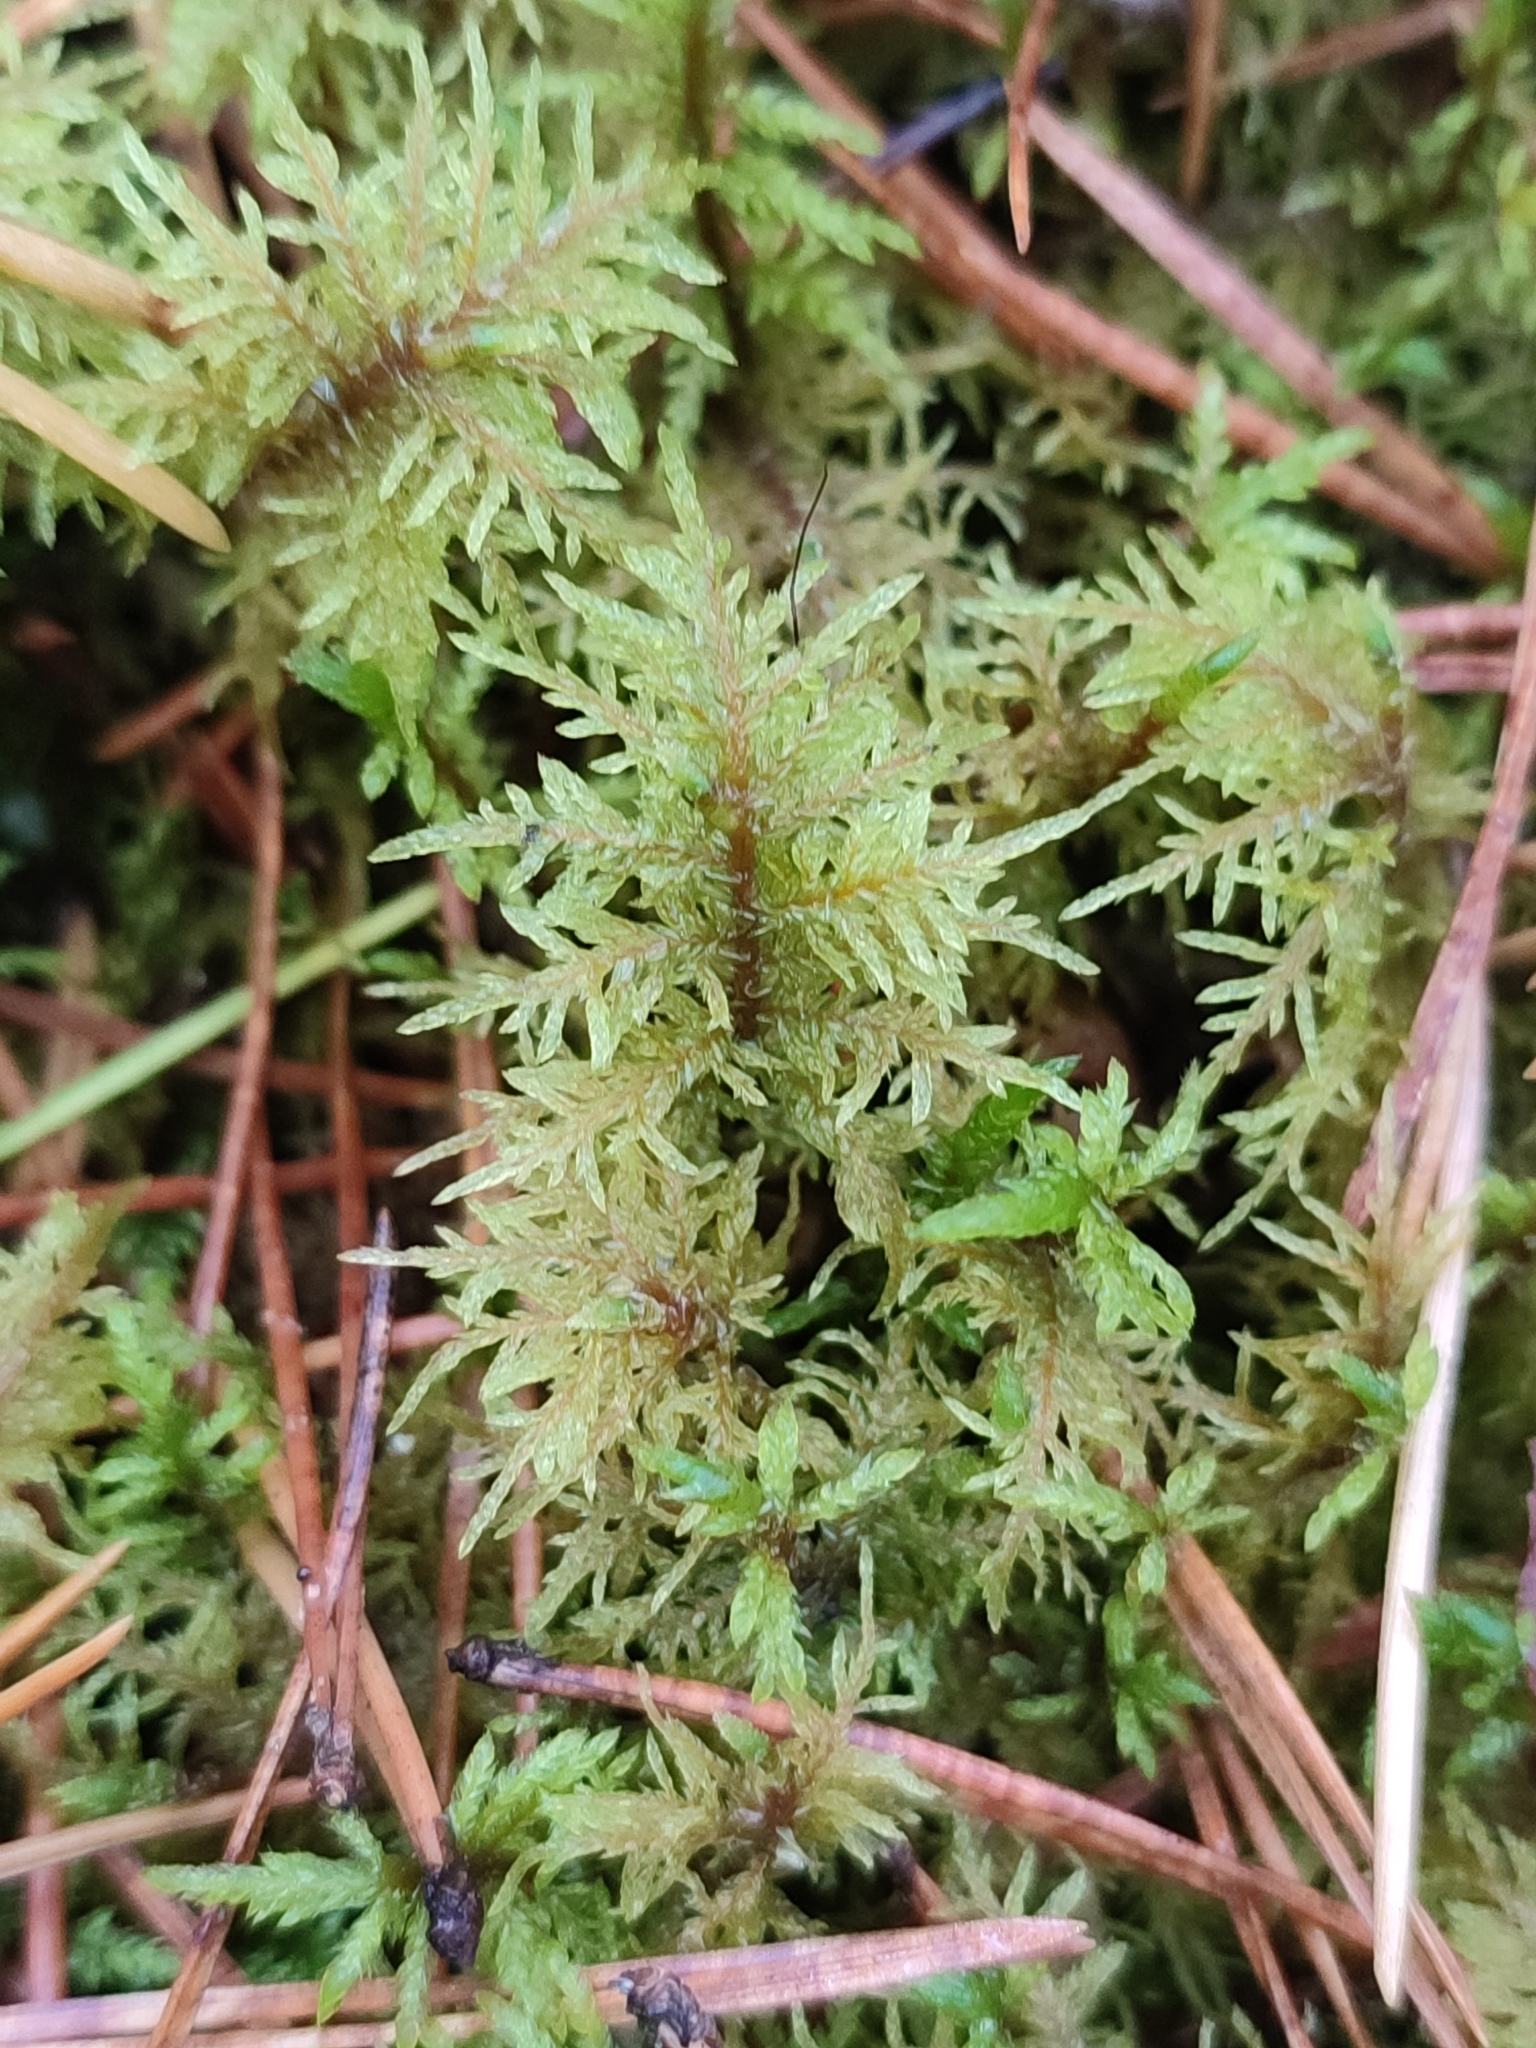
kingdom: Plantae
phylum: Bryophyta
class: Bryopsida
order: Hypnales
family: Hylocomiaceae
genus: Hylocomium
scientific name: Hylocomium splendens
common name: Stairstep moss
